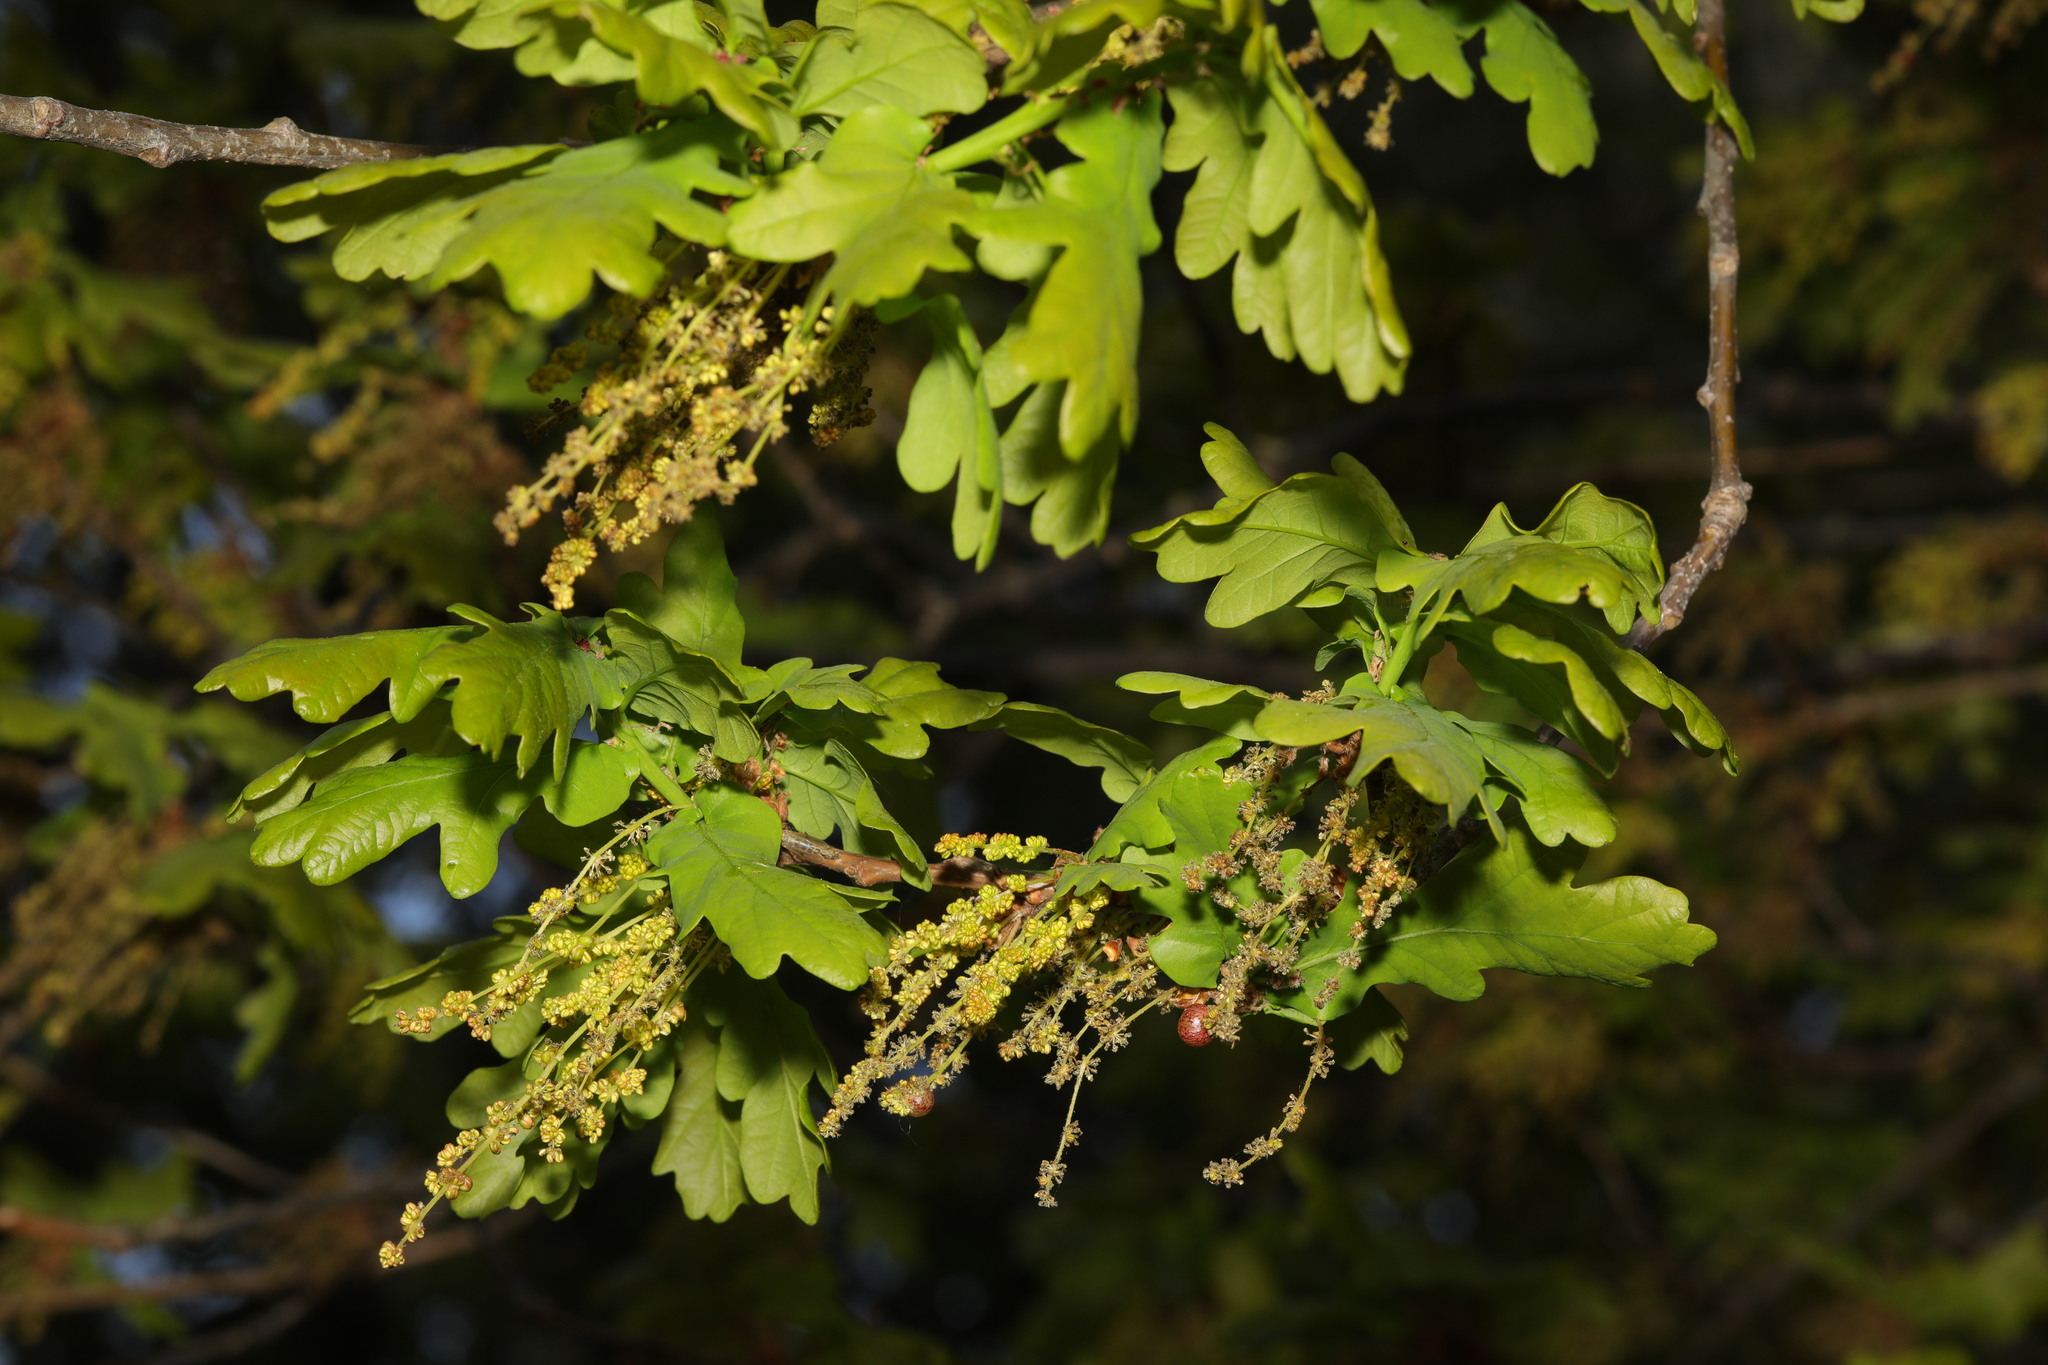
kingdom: Plantae
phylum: Tracheophyta
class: Magnoliopsida
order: Fagales
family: Fagaceae
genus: Quercus
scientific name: Quercus robur
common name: Pedunculate oak
